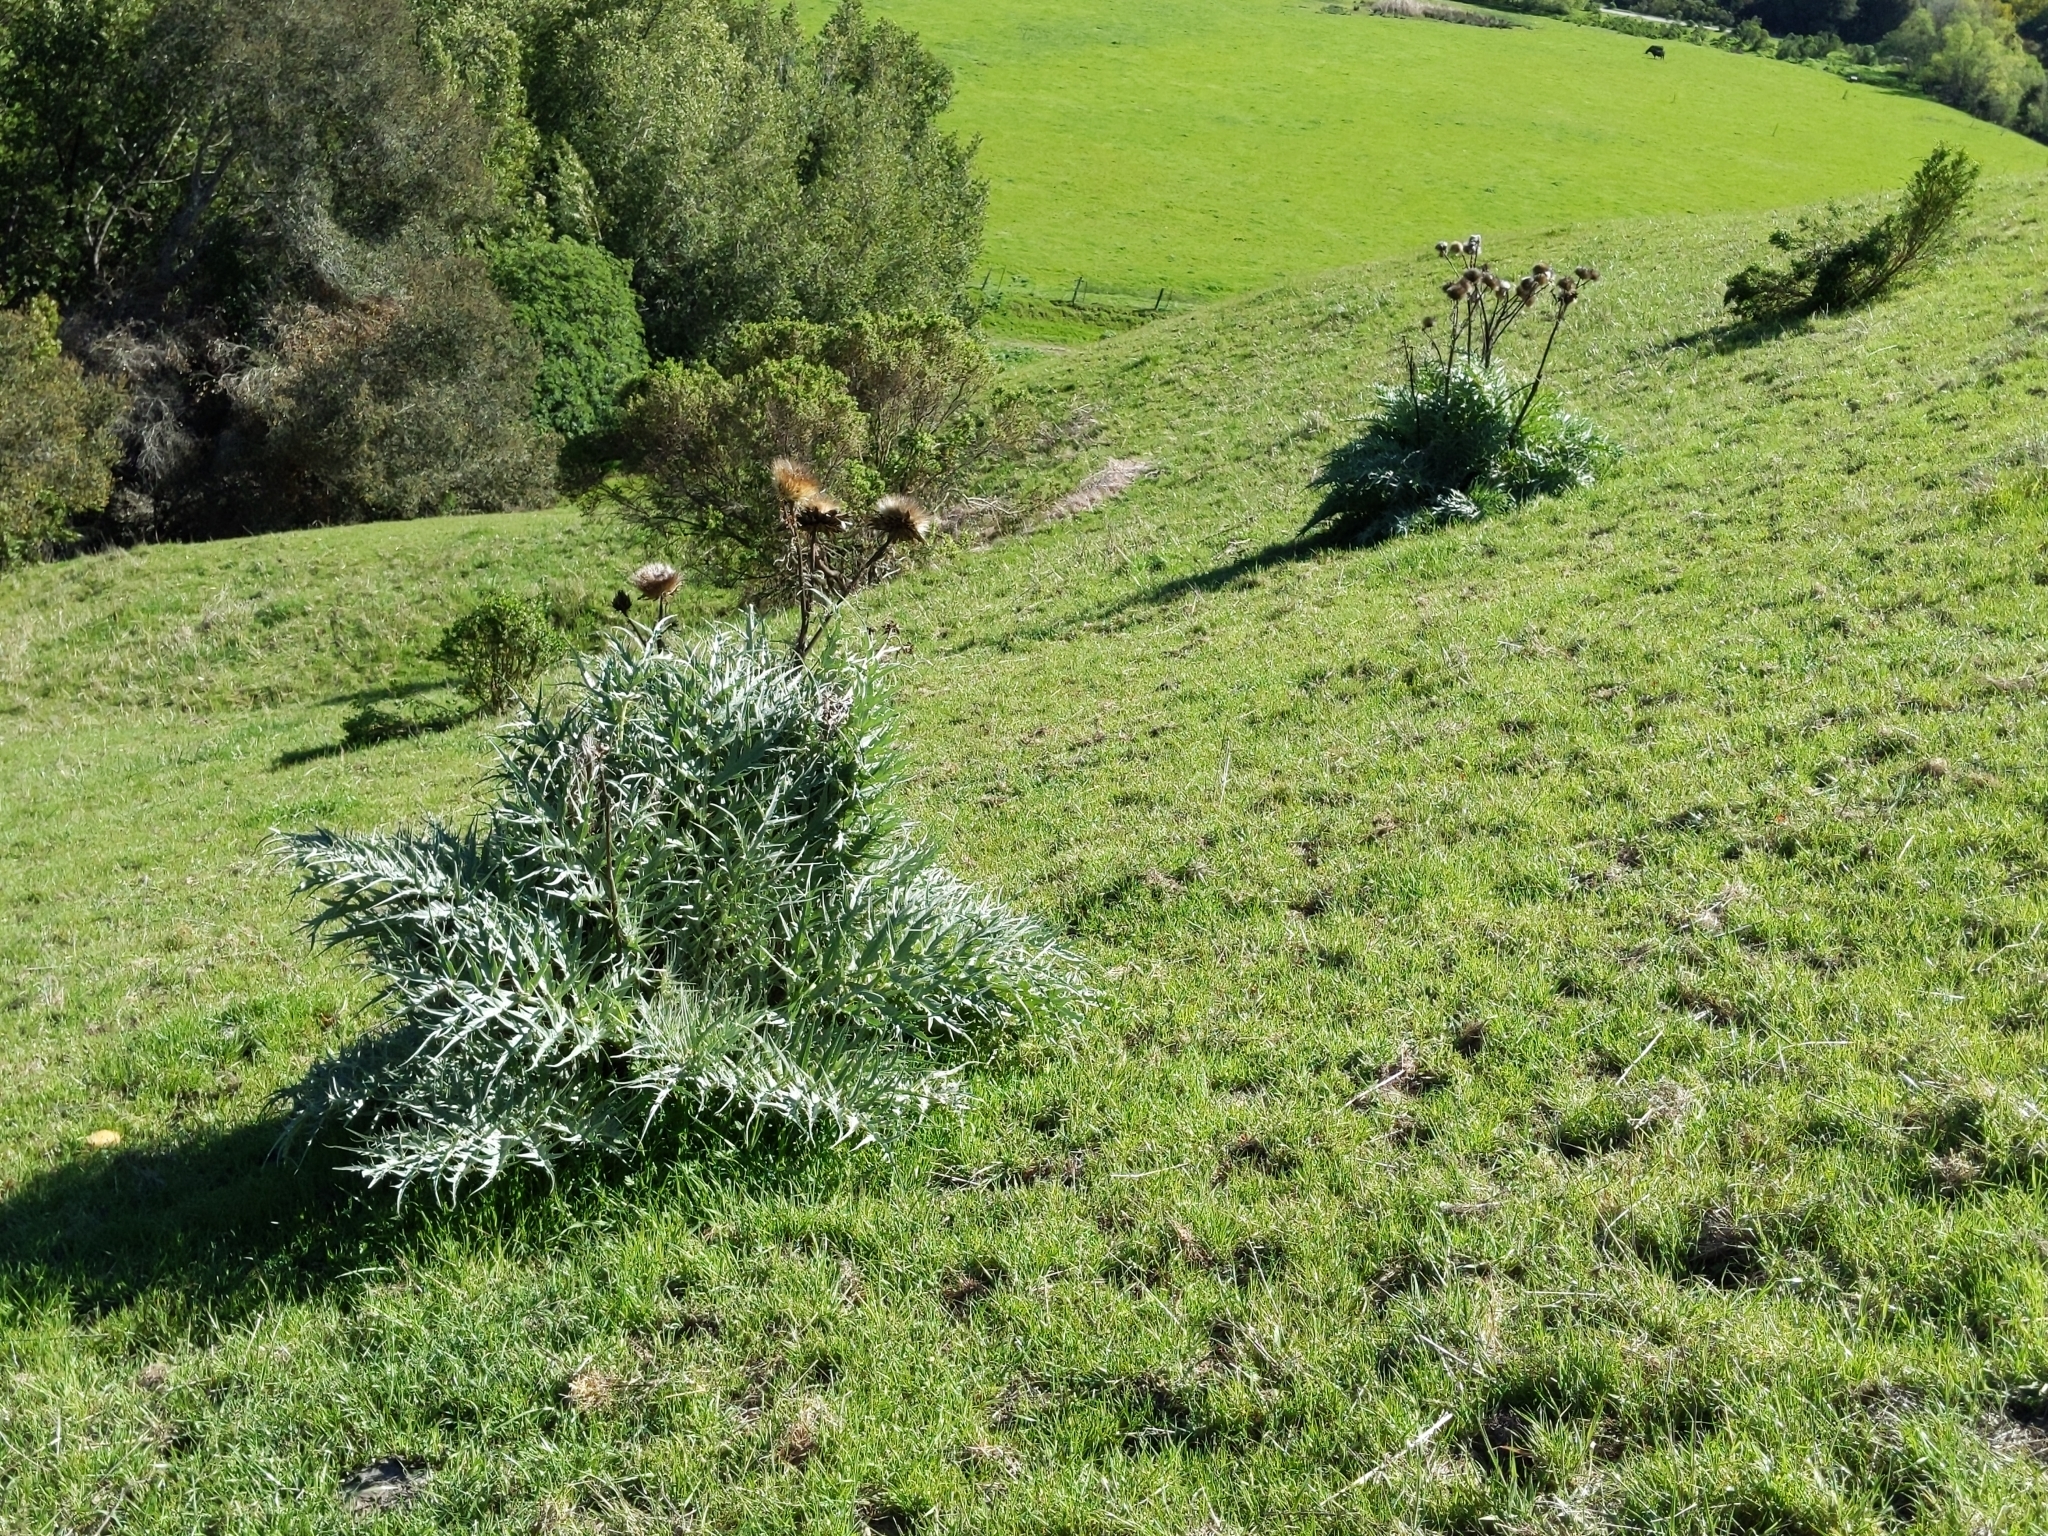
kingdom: Plantae
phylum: Tracheophyta
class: Magnoliopsida
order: Asterales
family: Asteraceae
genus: Cynara
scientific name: Cynara cardunculus
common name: Globe artichoke
